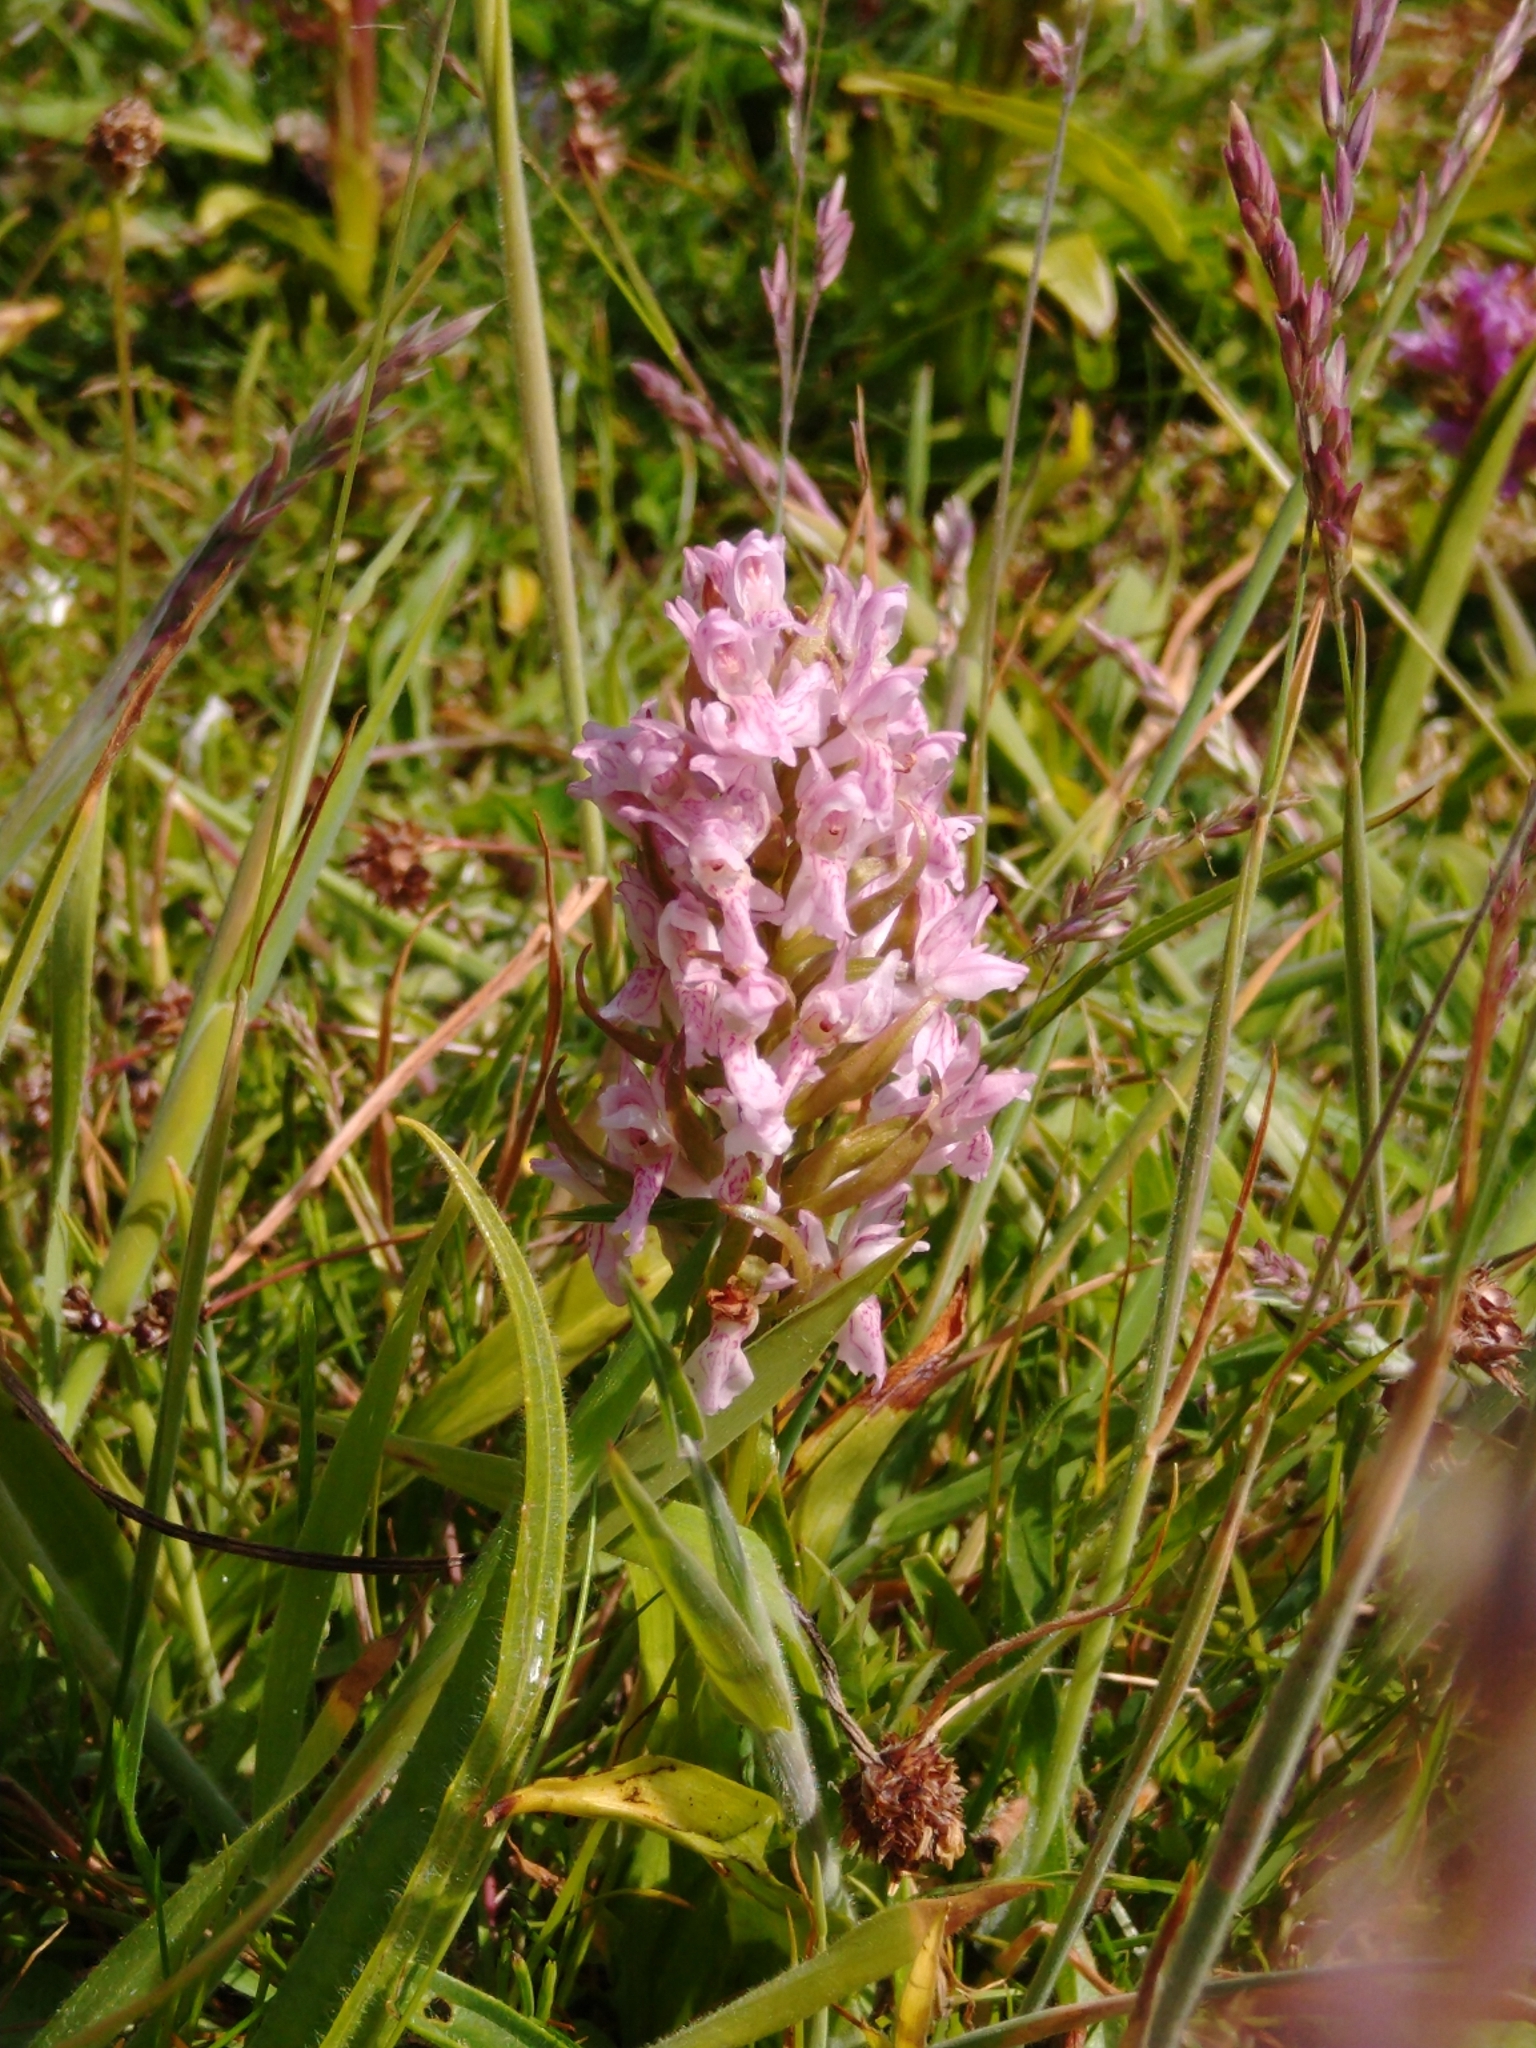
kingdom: Plantae
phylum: Tracheophyta
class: Liliopsida
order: Asparagales
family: Orchidaceae
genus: Dactylorhiza
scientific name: Dactylorhiza incarnata
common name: Early marsh-orchid
